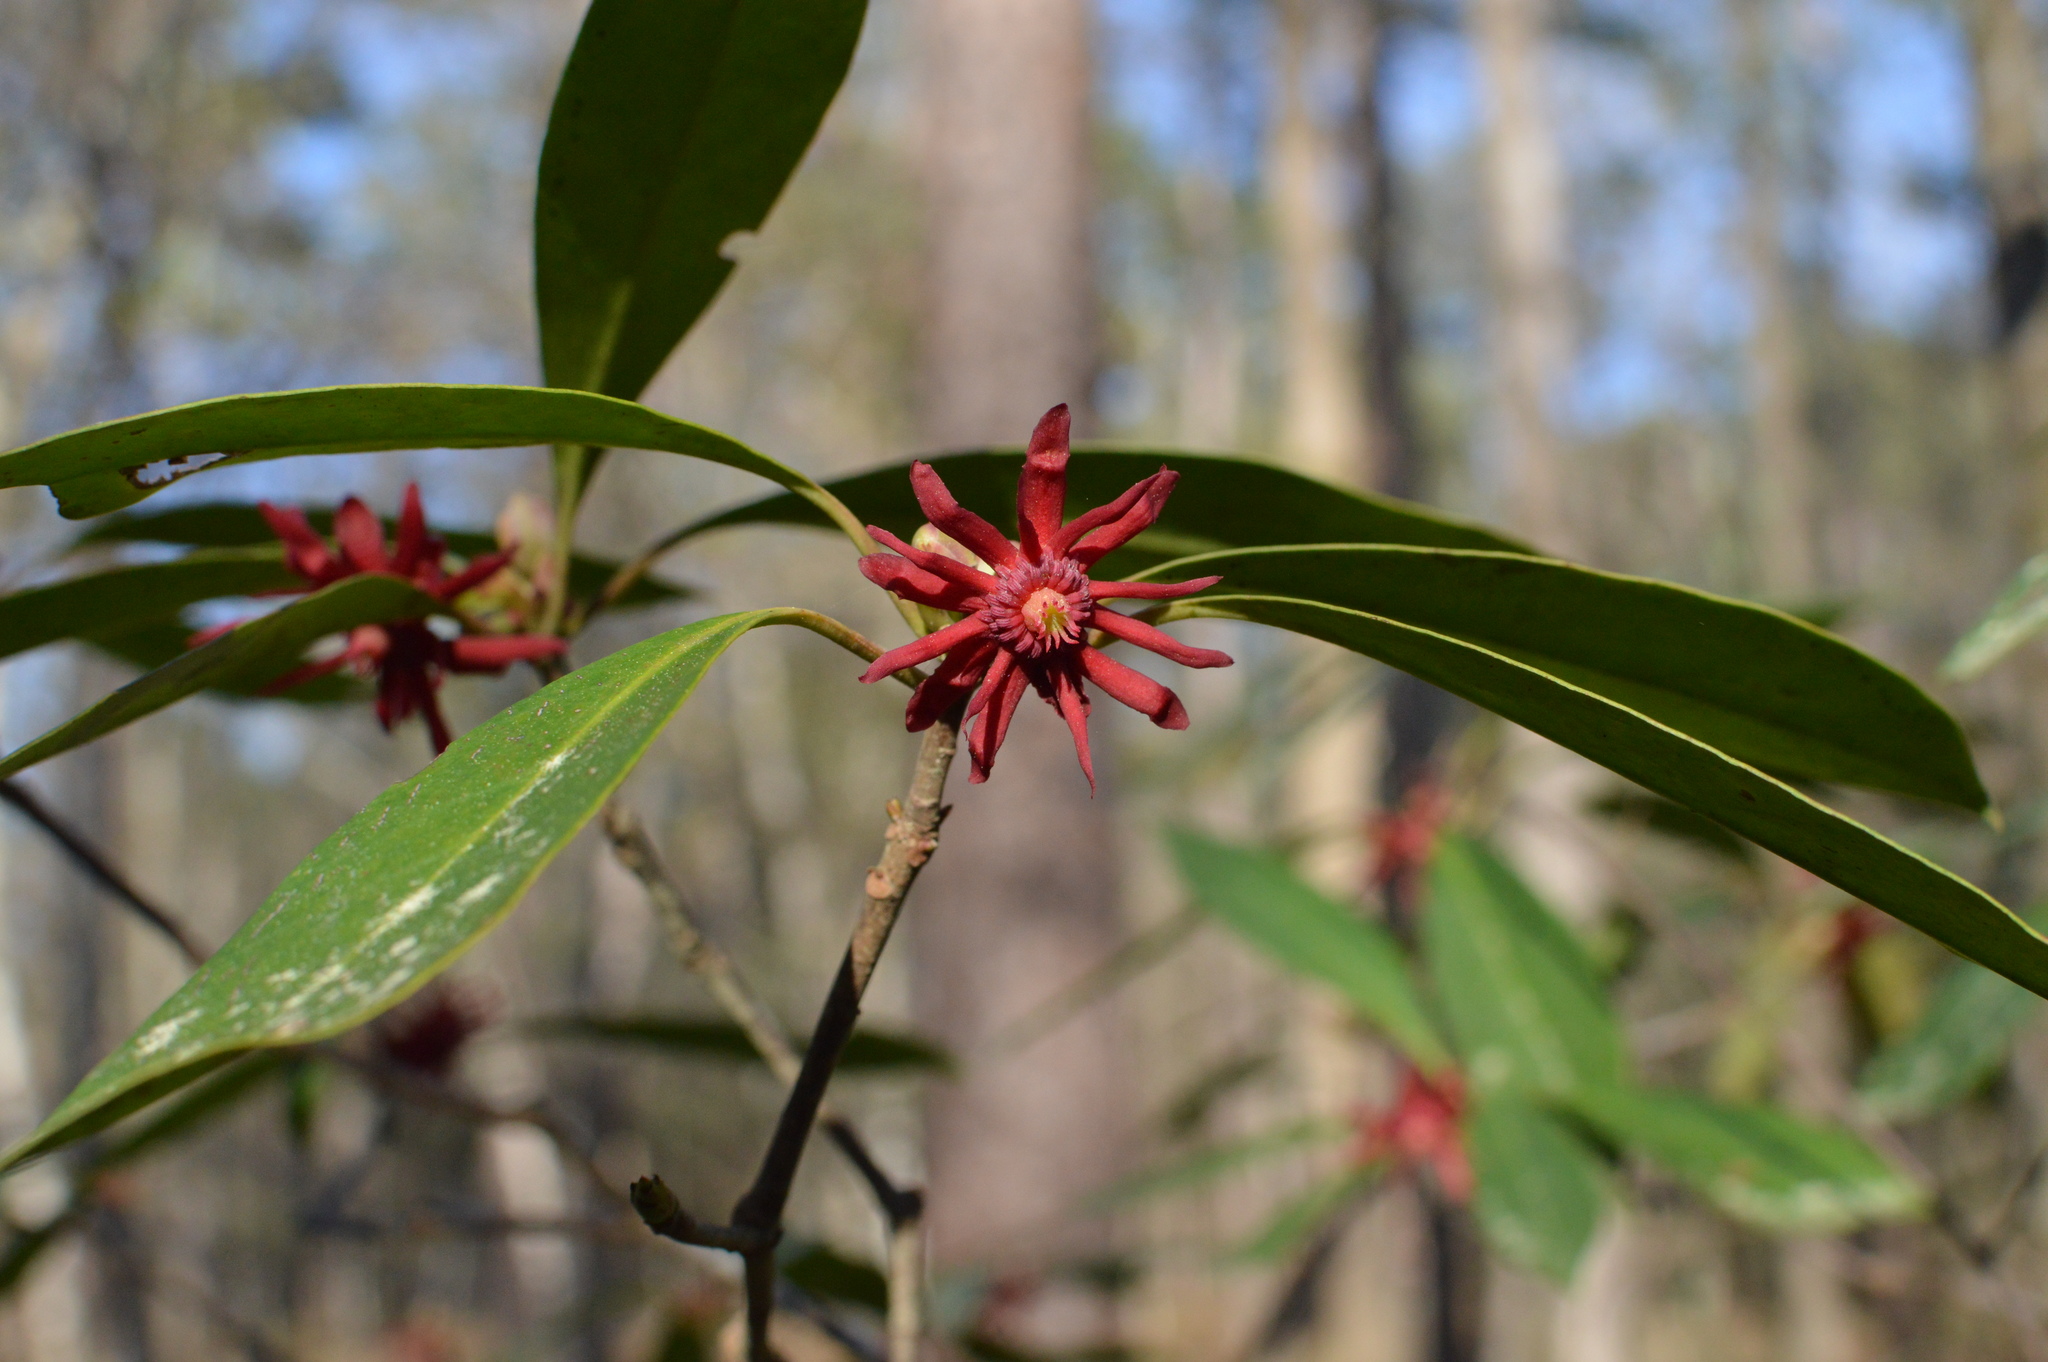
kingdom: Plantae
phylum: Tracheophyta
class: Magnoliopsida
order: Austrobaileyales
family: Schisandraceae
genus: Illicium
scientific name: Illicium floridanum
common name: Florida anisetree
